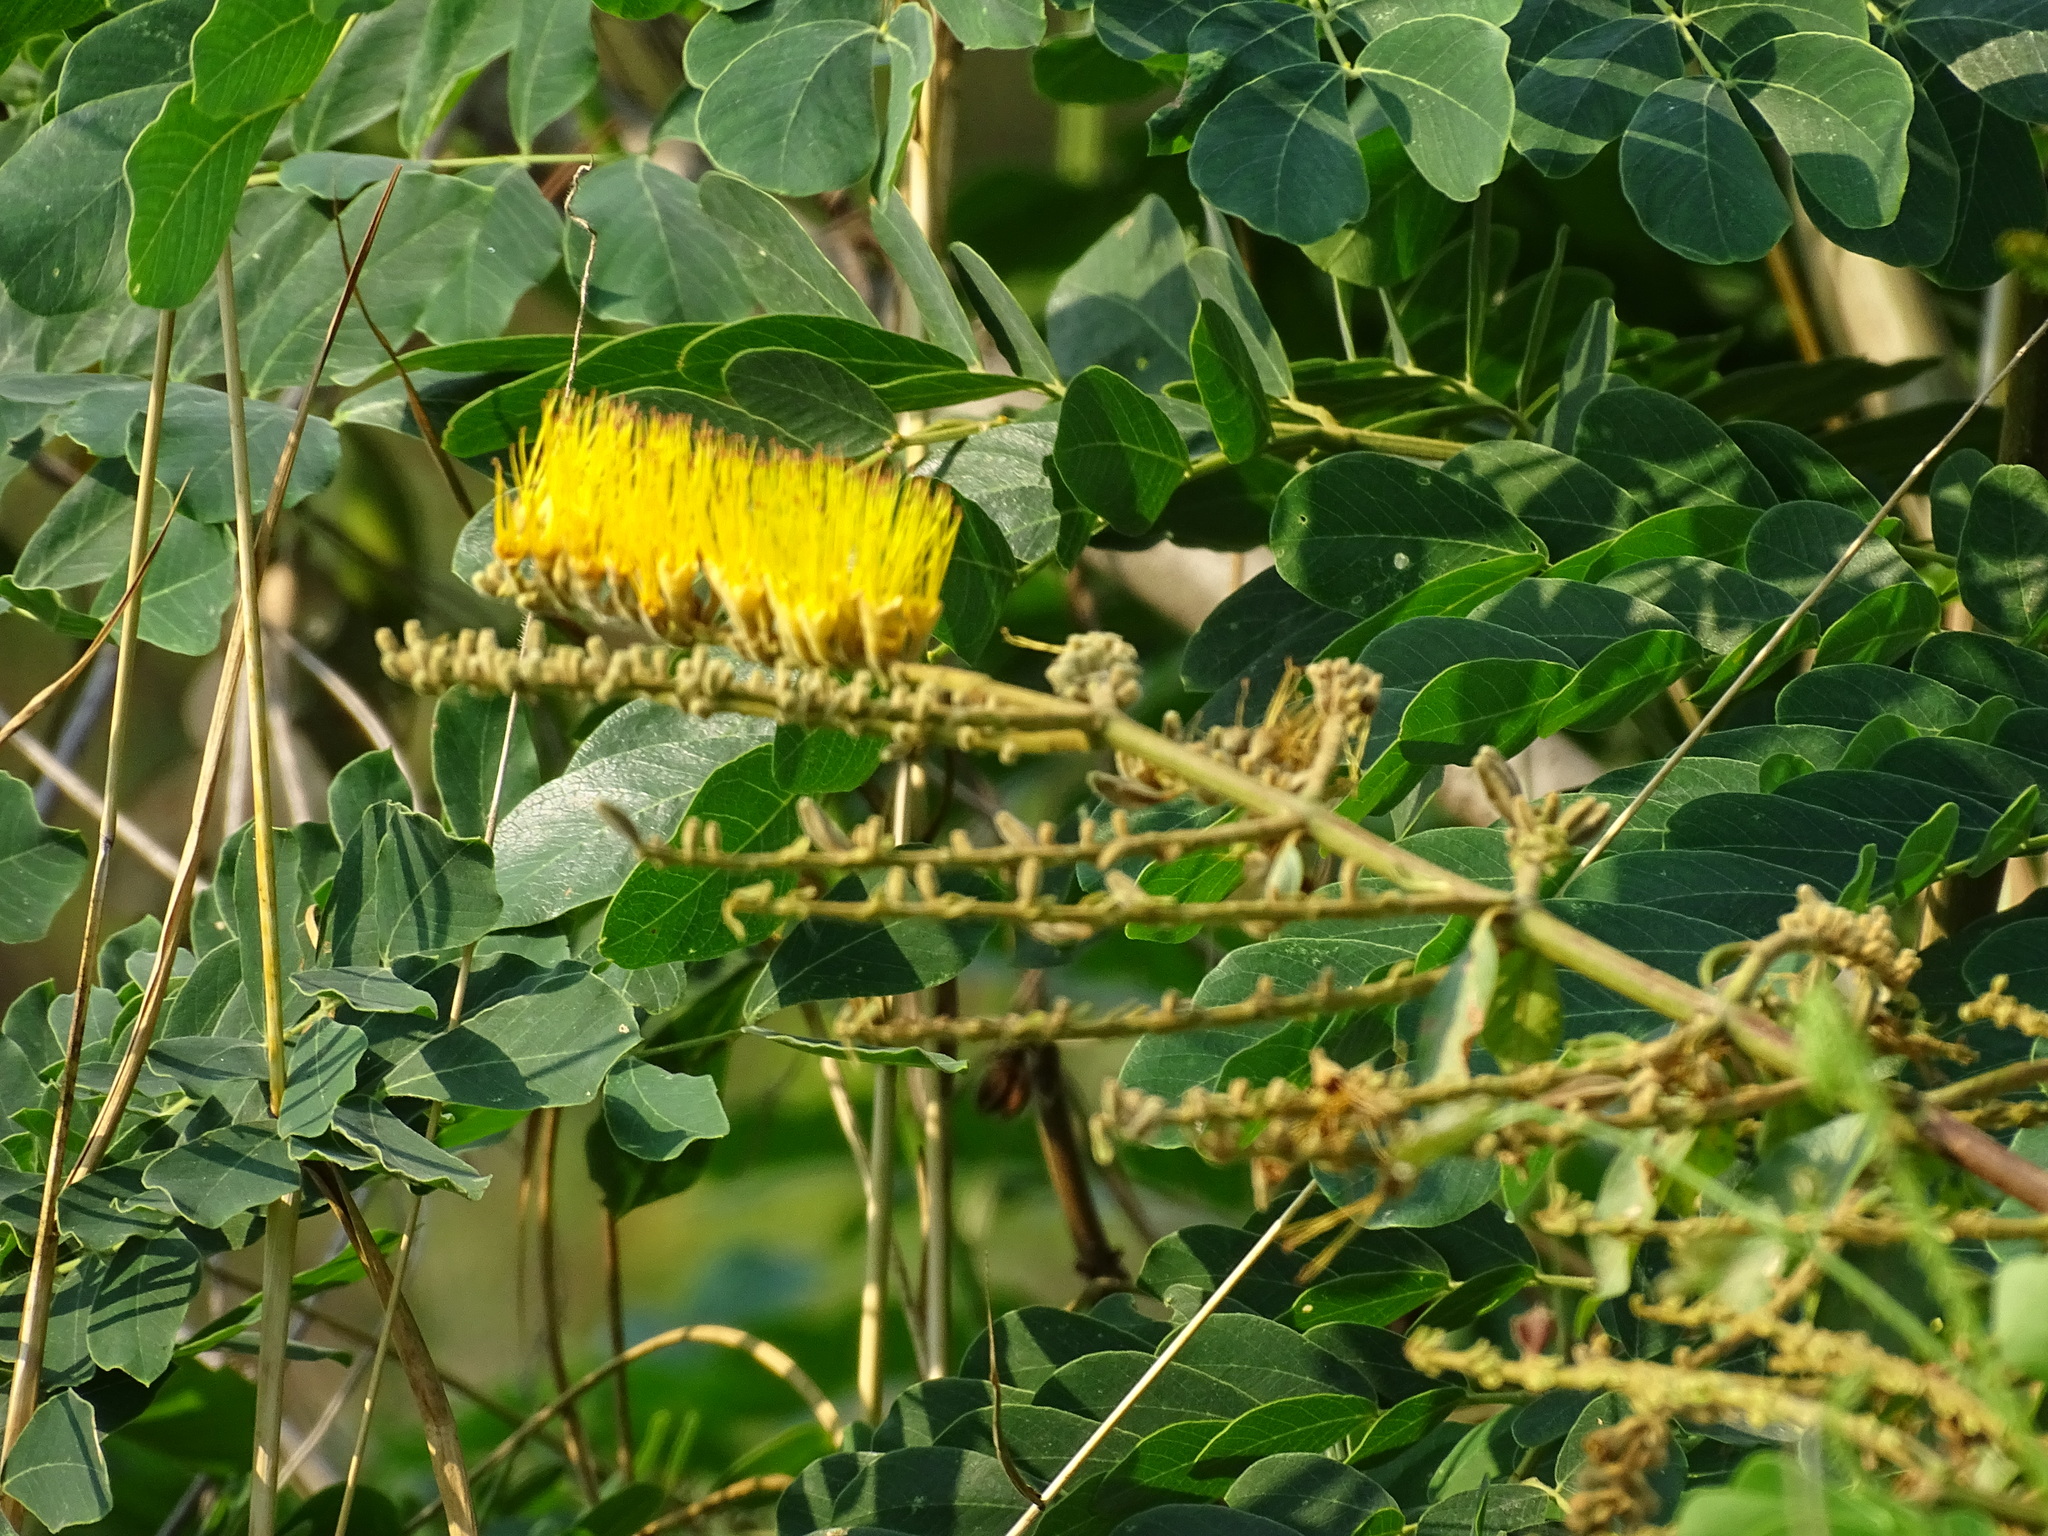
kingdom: Plantae
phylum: Tracheophyta
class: Magnoliopsida
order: Myrtales
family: Combretaceae
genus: Combretum
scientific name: Combretum fruticosum
